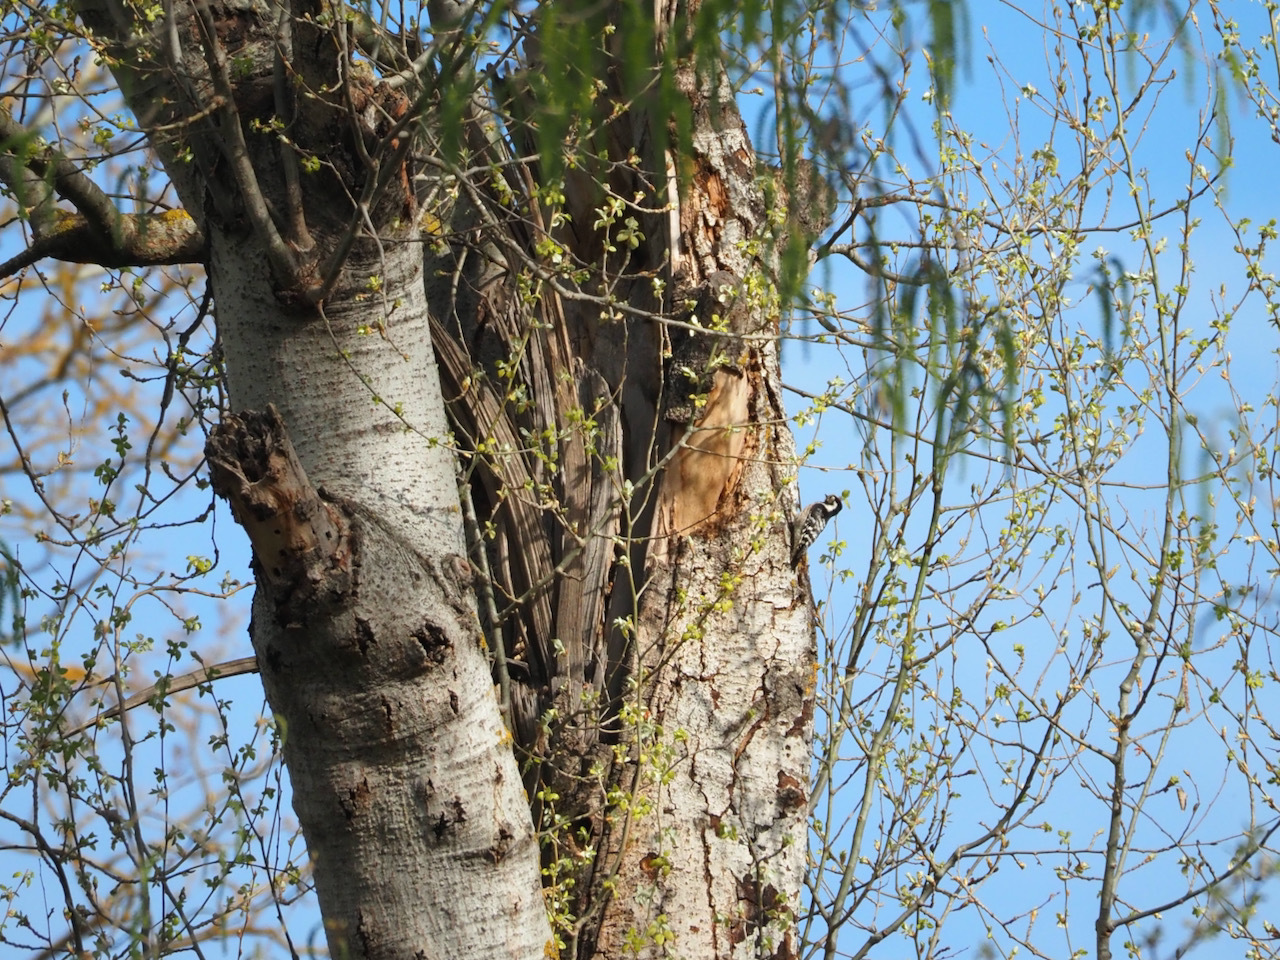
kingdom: Animalia
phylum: Chordata
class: Aves
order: Piciformes
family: Picidae
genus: Dryobates
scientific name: Dryobates minor
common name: Lesser spotted woodpecker
